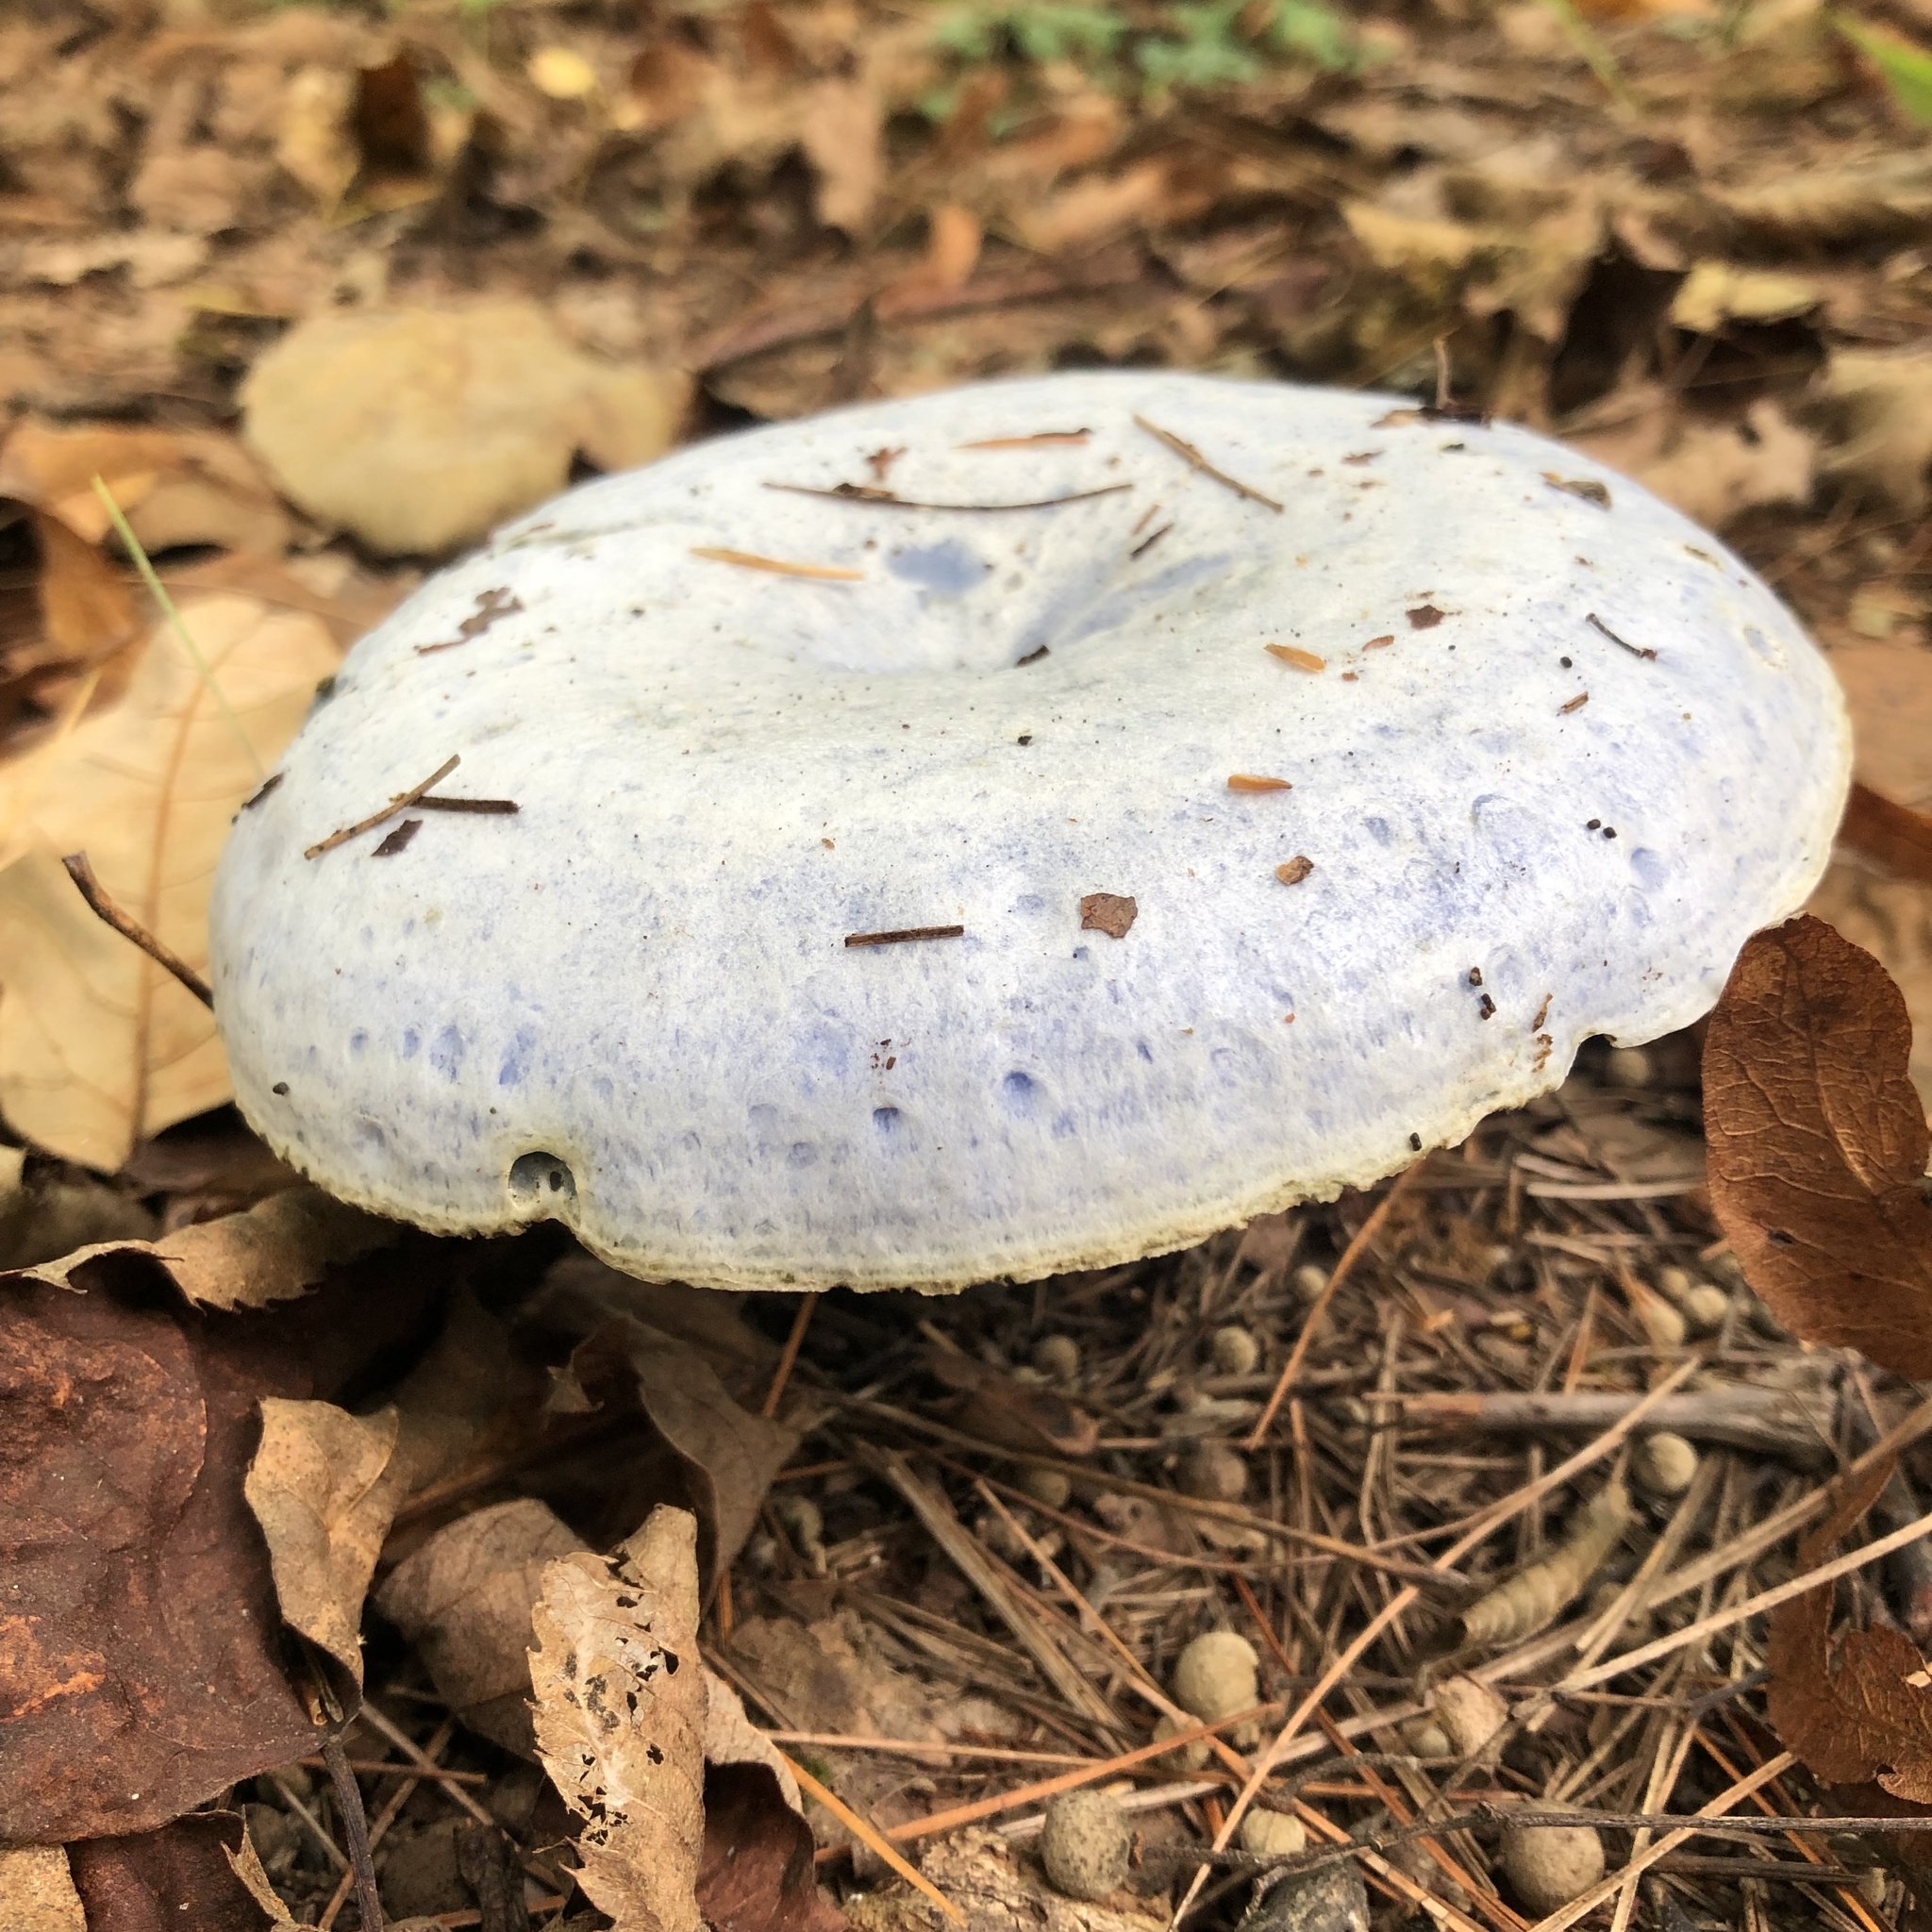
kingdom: Fungi
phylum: Basidiomycota
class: Agaricomycetes
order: Russulales
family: Russulaceae
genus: Lactarius
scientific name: Lactarius indigo
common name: Indigo milk cap
